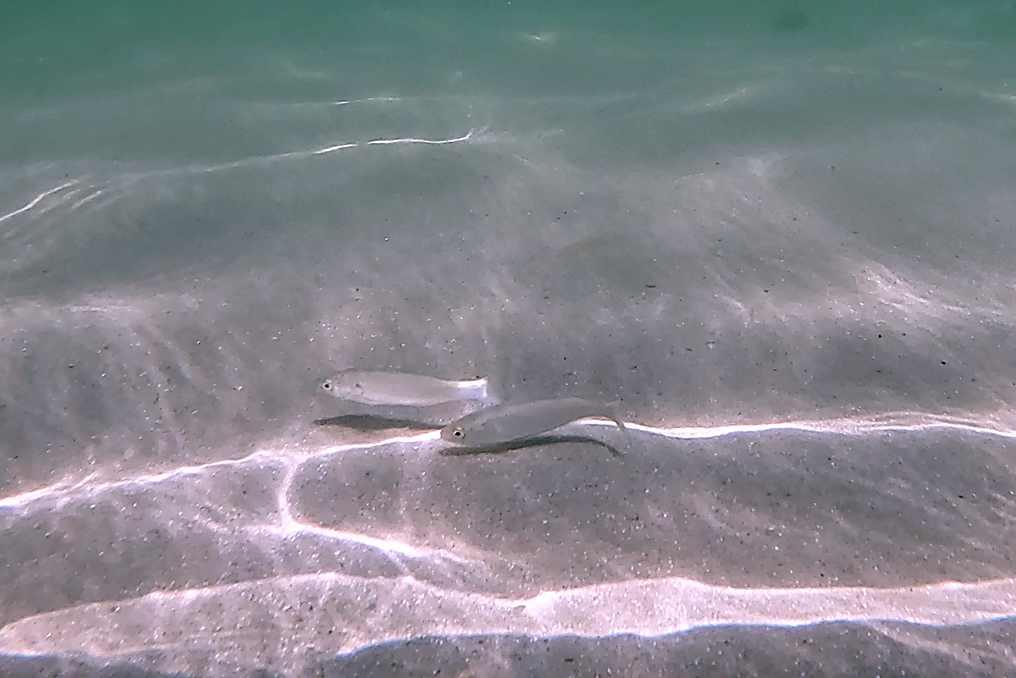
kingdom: Animalia
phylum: Chordata
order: Mugiliformes
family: Mugilidae
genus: Aldrichetta
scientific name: Aldrichetta forsteri
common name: Yellow-eye mullet
